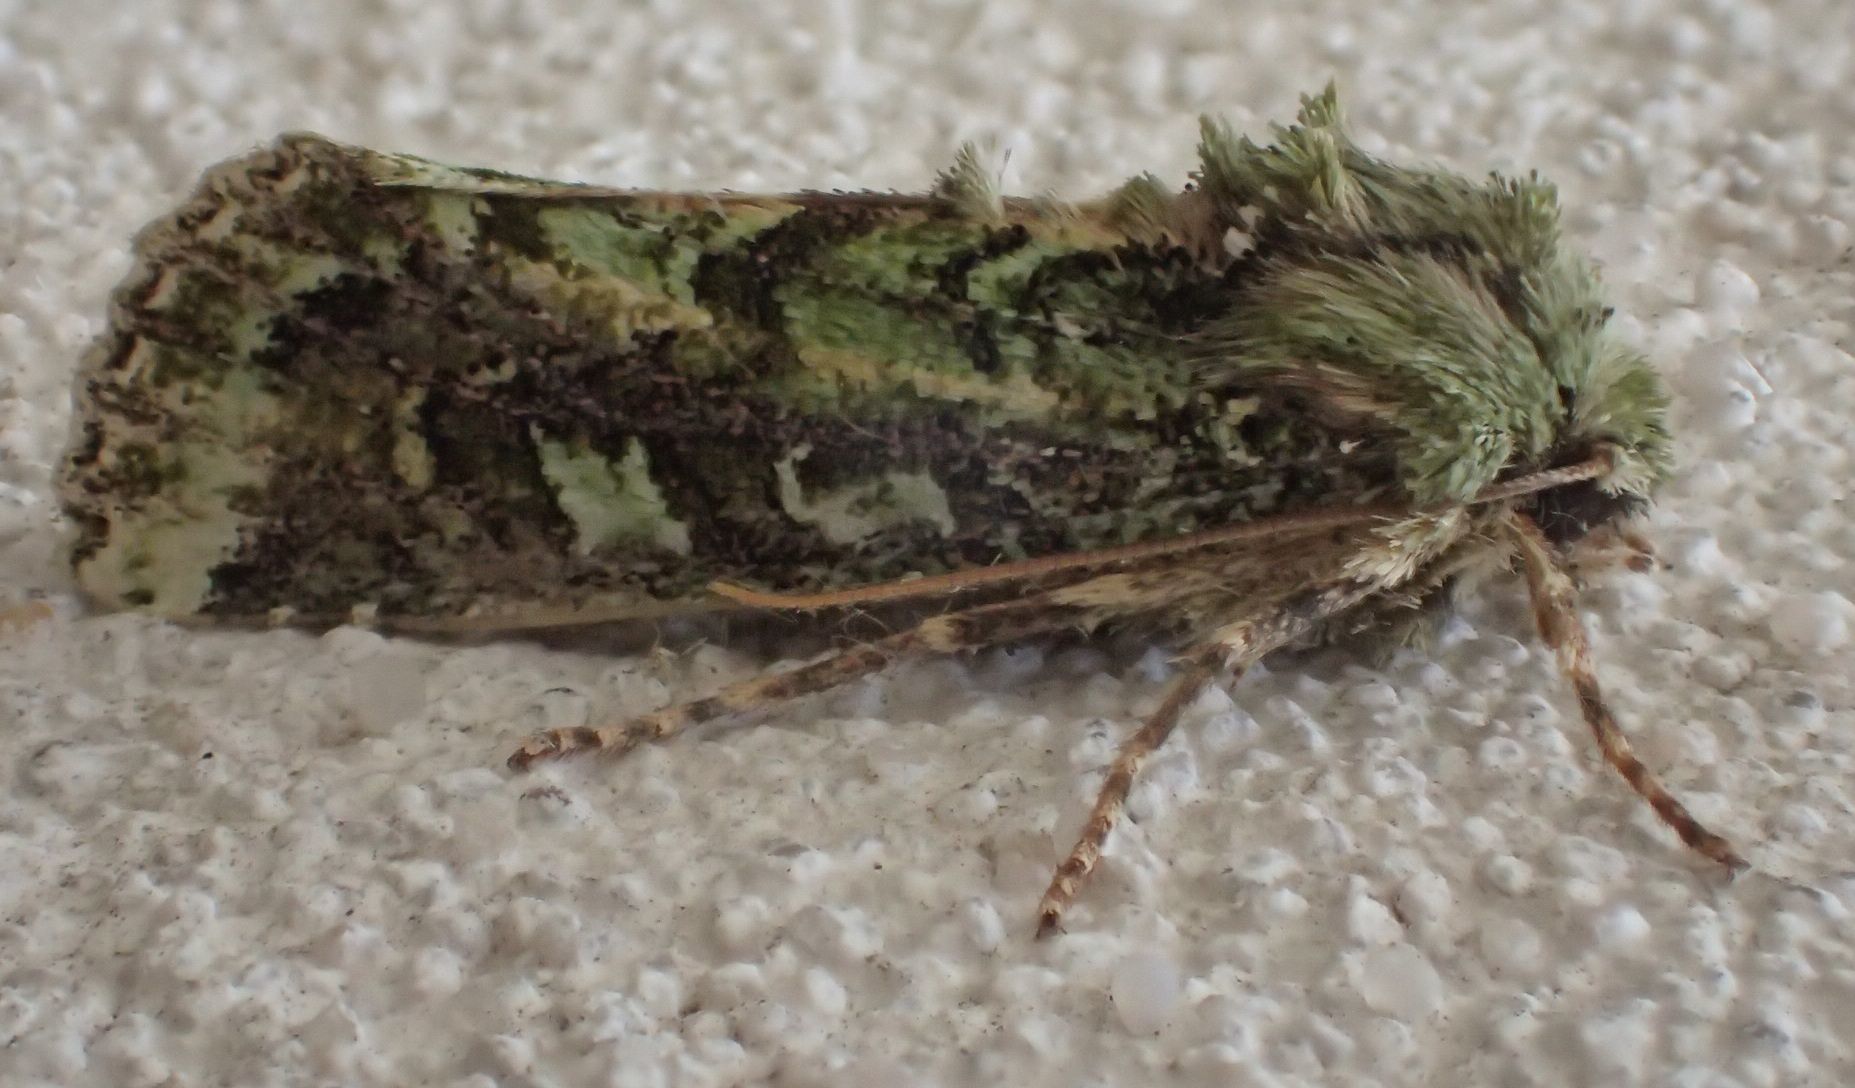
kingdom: Animalia
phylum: Arthropoda
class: Insecta
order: Lepidoptera
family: Noctuidae
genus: Feredayia
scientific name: Feredayia grammosa
